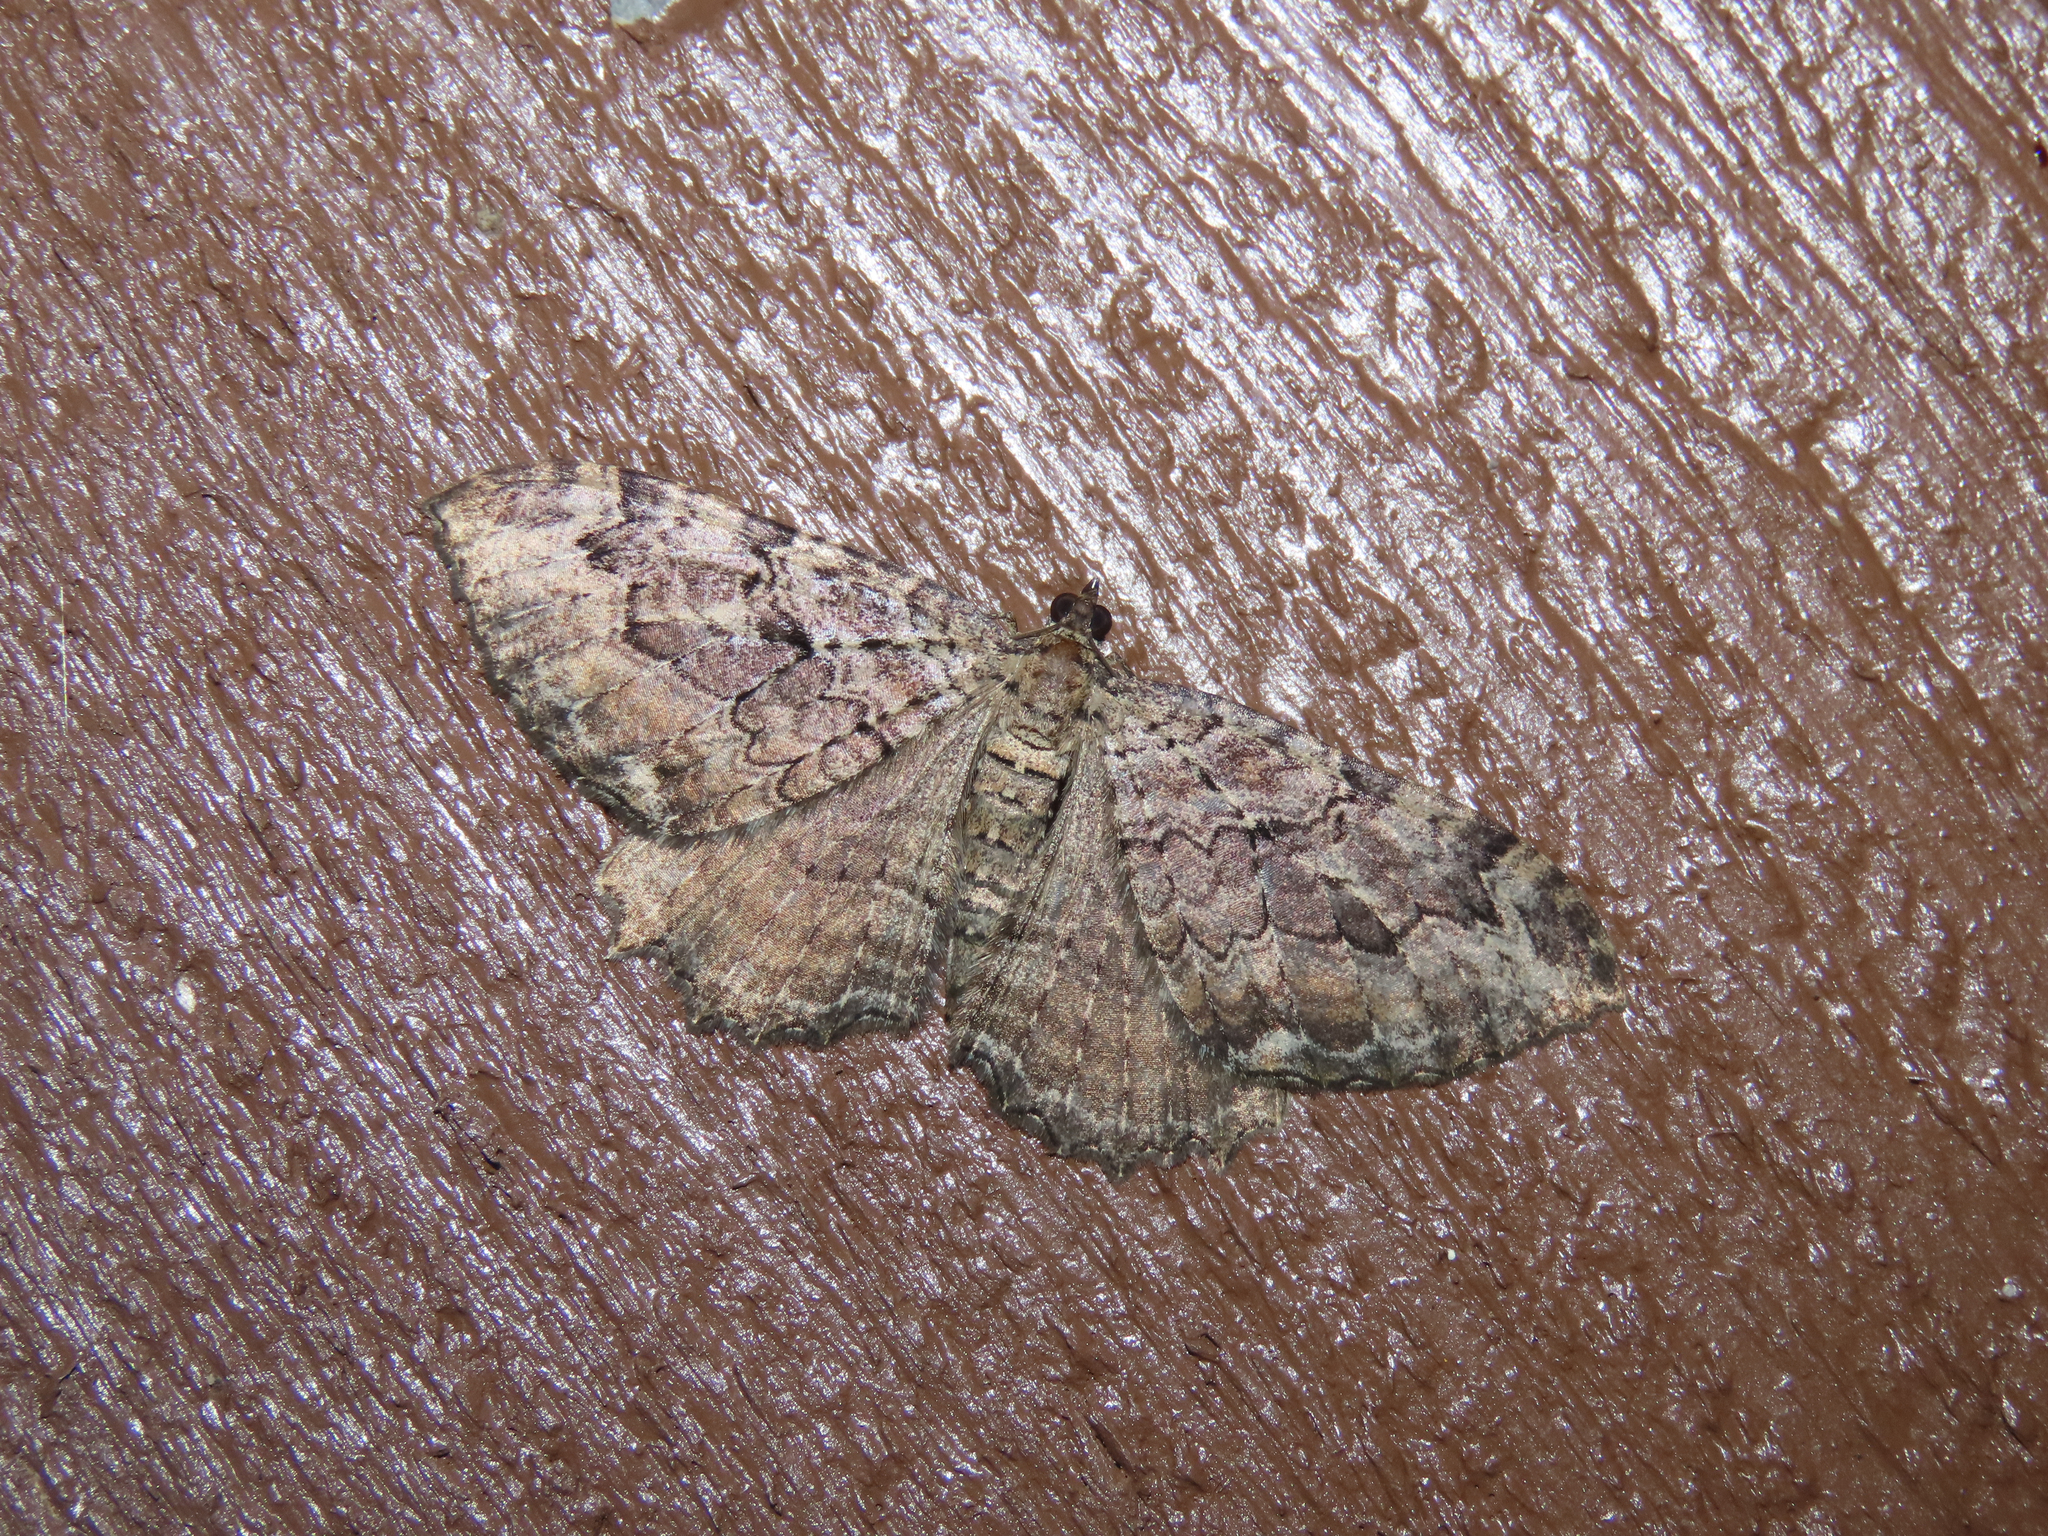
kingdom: Animalia
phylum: Arthropoda
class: Insecta
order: Lepidoptera
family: Geometridae
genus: Rheumaptera
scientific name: Rheumaptera
